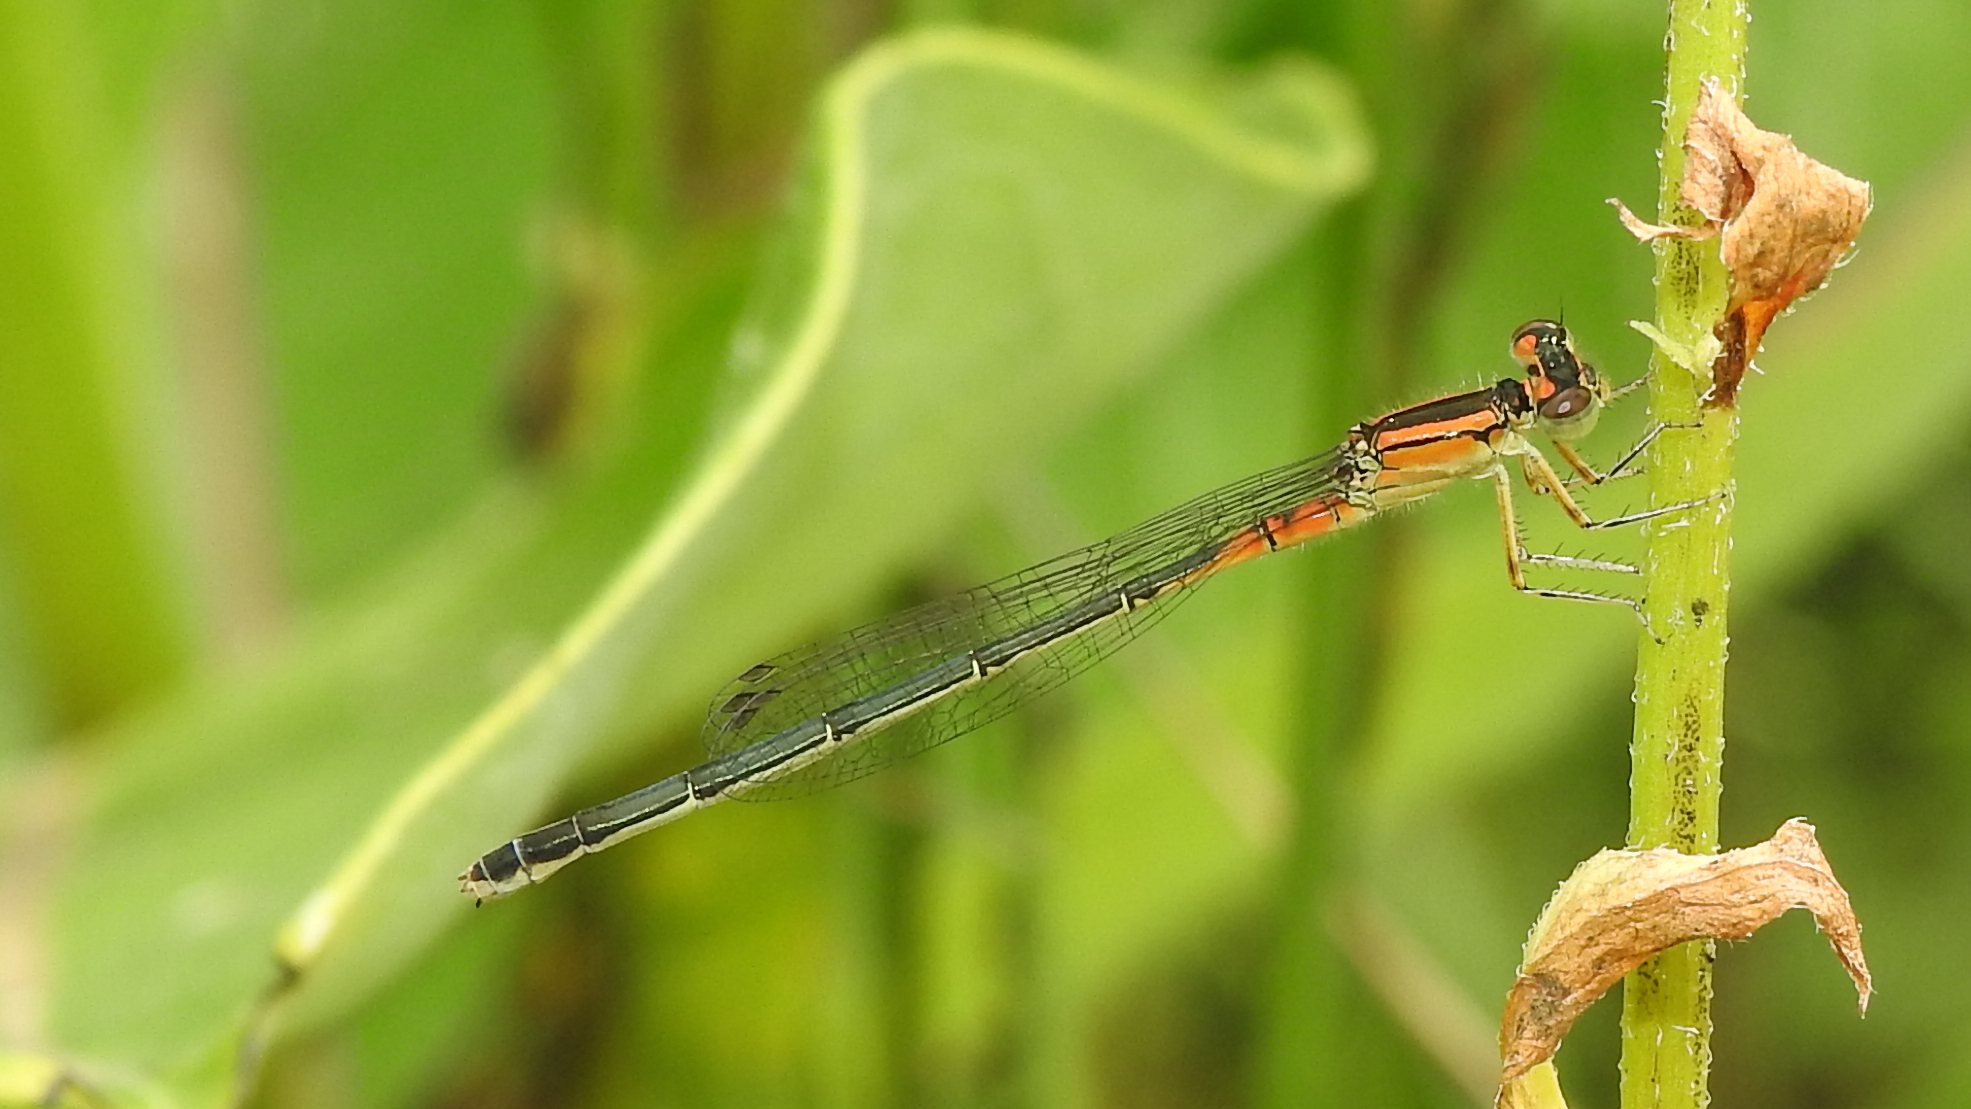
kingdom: Animalia
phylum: Arthropoda
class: Insecta
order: Odonata
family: Coenagrionidae
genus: Ischnura
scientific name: Ischnura verticalis
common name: Eastern forktail
